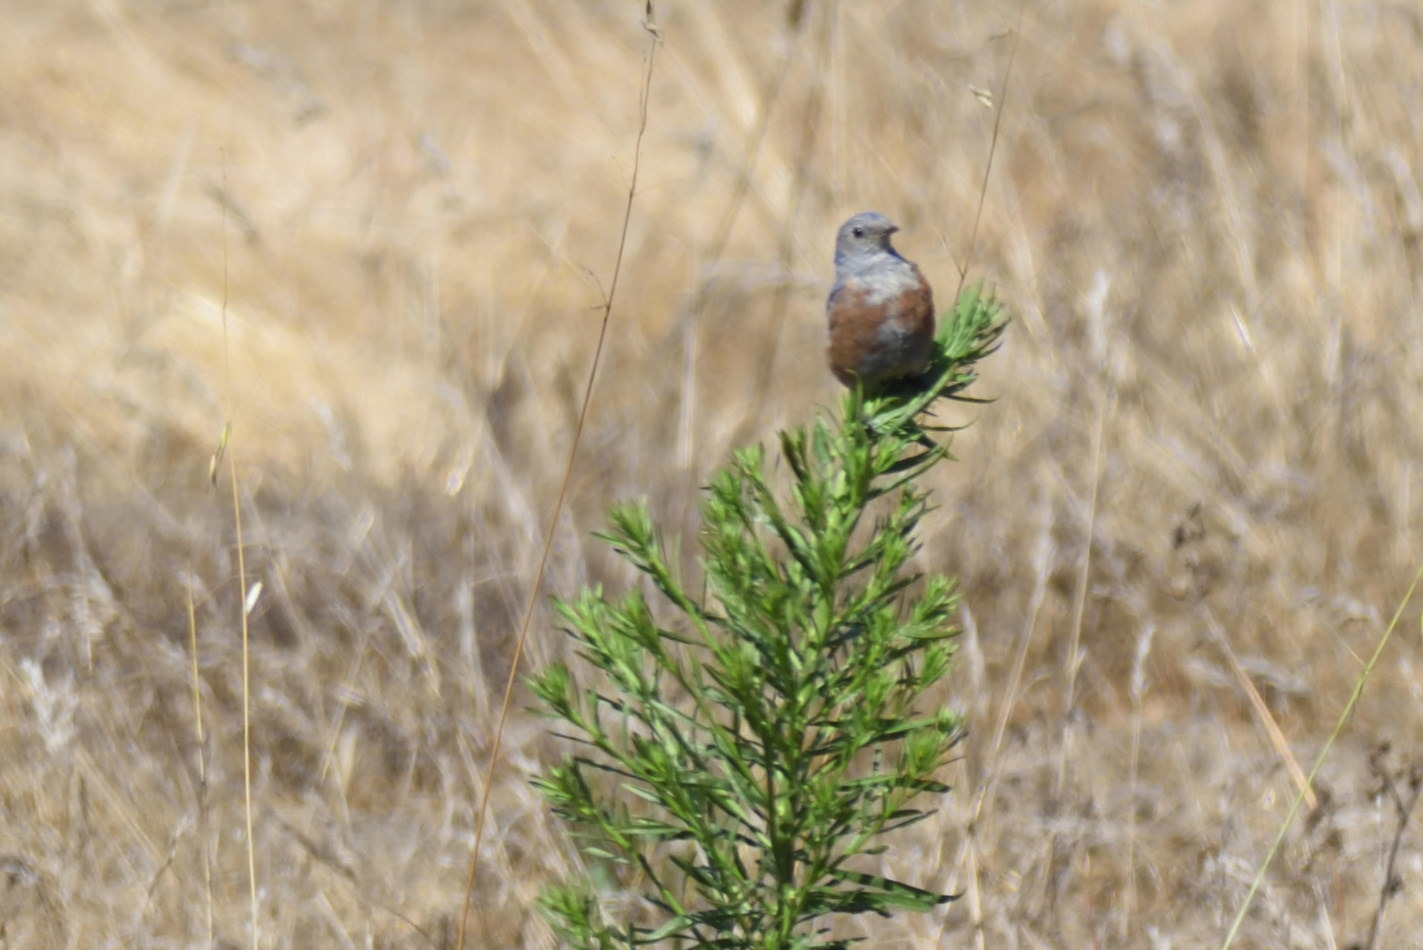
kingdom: Animalia
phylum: Chordata
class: Aves
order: Passeriformes
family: Turdidae
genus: Sialia
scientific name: Sialia mexicana
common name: Western bluebird
